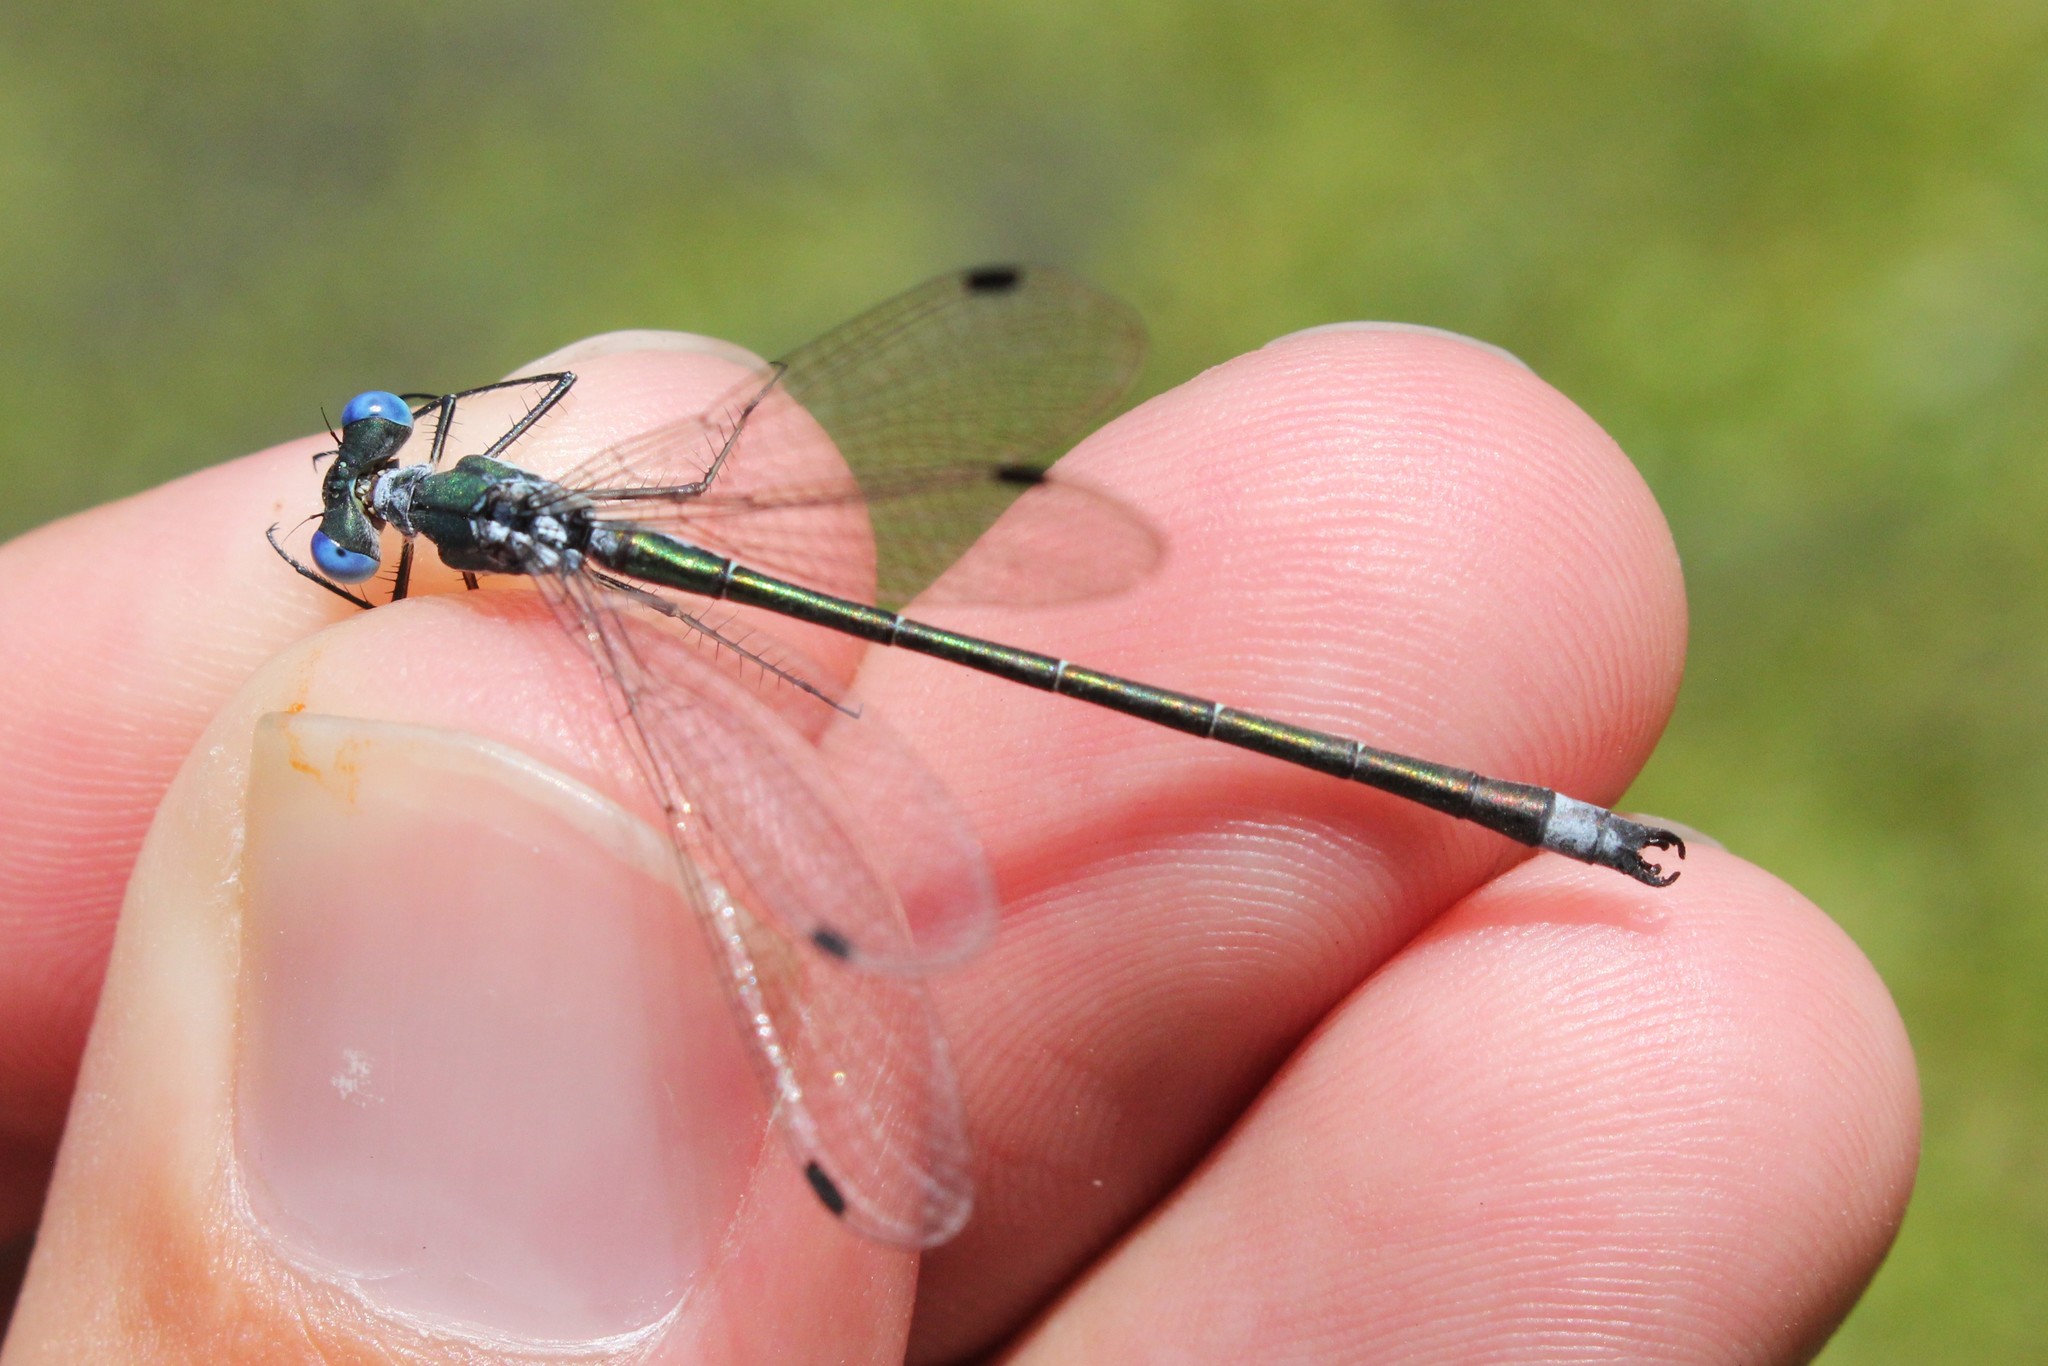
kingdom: Animalia
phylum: Arthropoda
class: Insecta
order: Odonata
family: Lestidae
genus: Lestes
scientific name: Lestes dryas
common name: Scarce emerald damselfly
